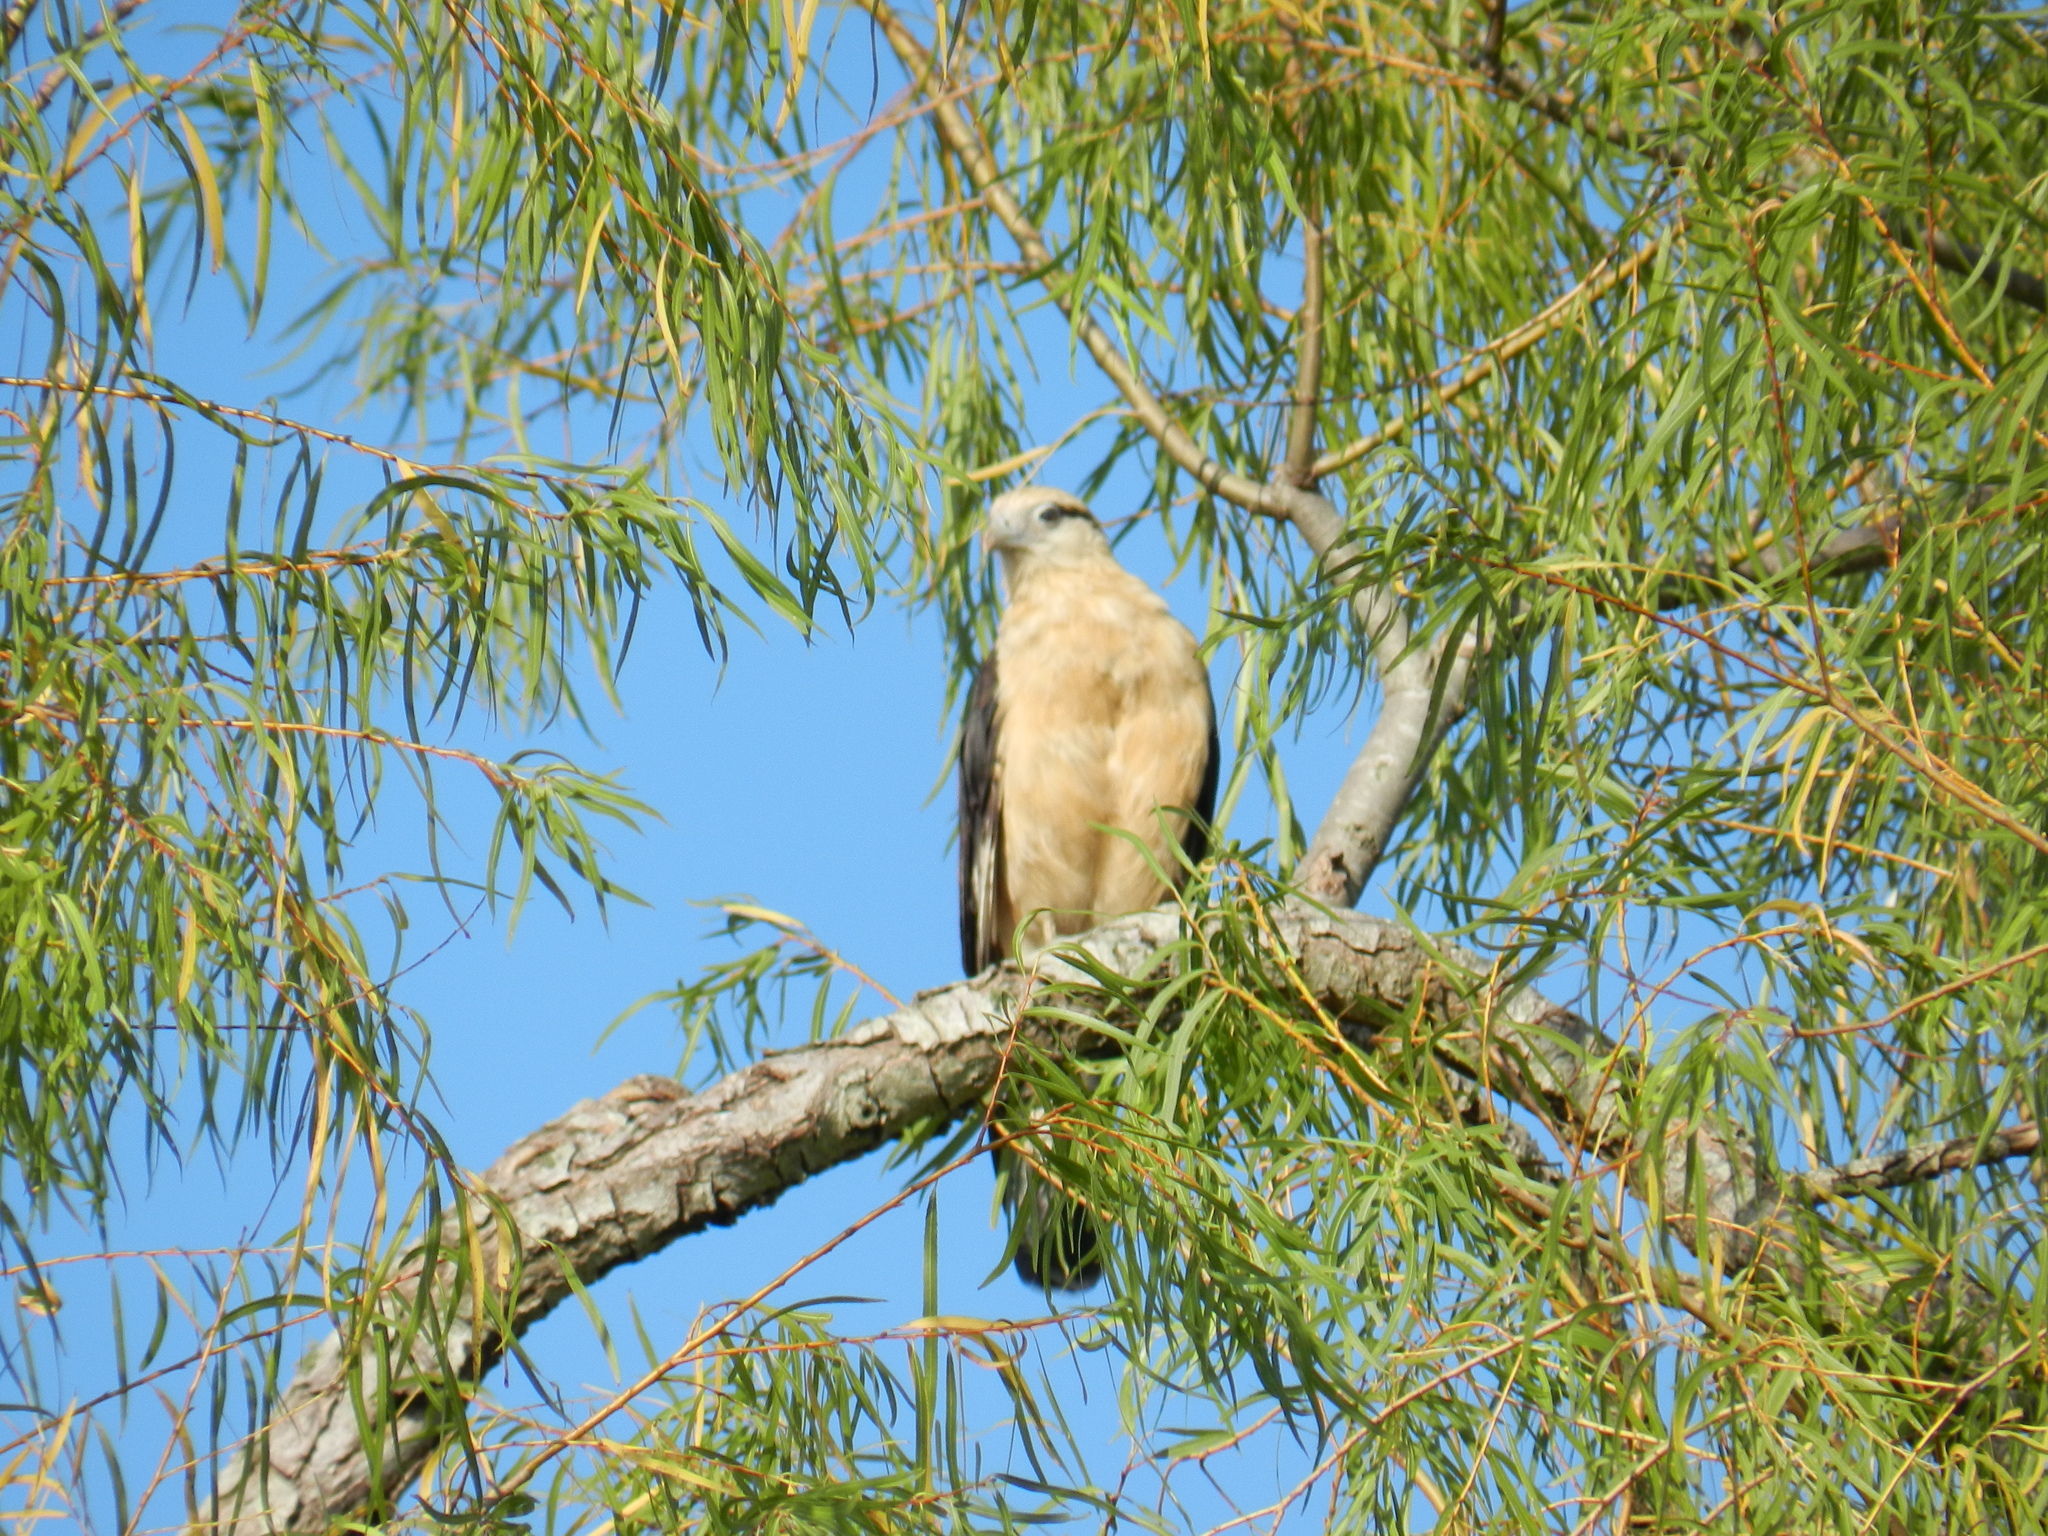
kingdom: Animalia
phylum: Chordata
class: Aves
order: Falconiformes
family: Falconidae
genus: Daptrius
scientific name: Daptrius
